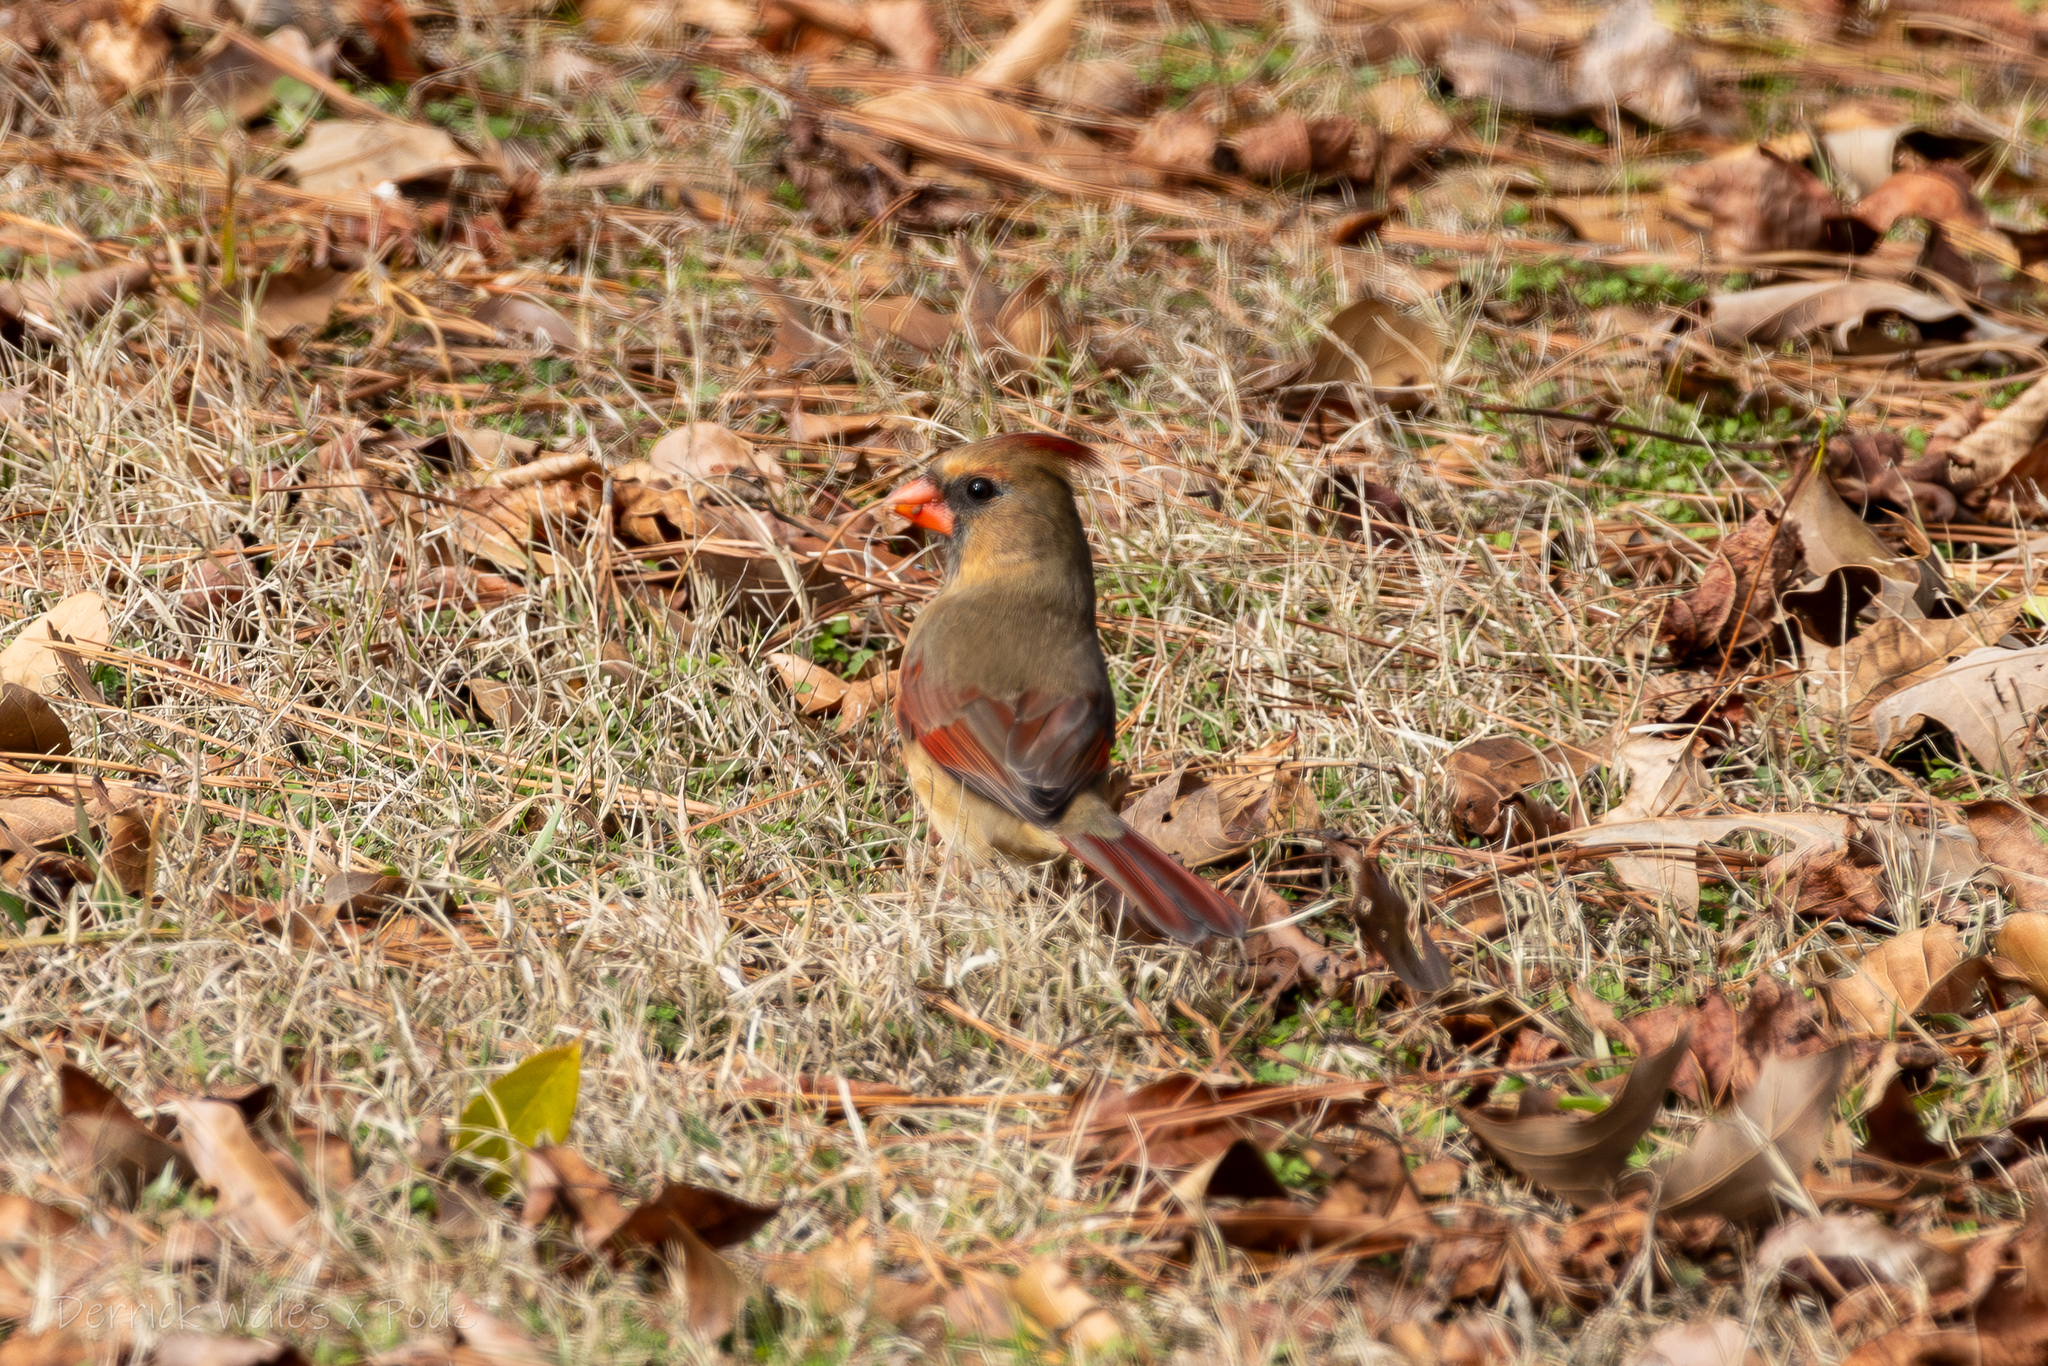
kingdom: Animalia
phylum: Chordata
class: Aves
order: Passeriformes
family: Cardinalidae
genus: Cardinalis
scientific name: Cardinalis cardinalis
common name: Northern cardinal
